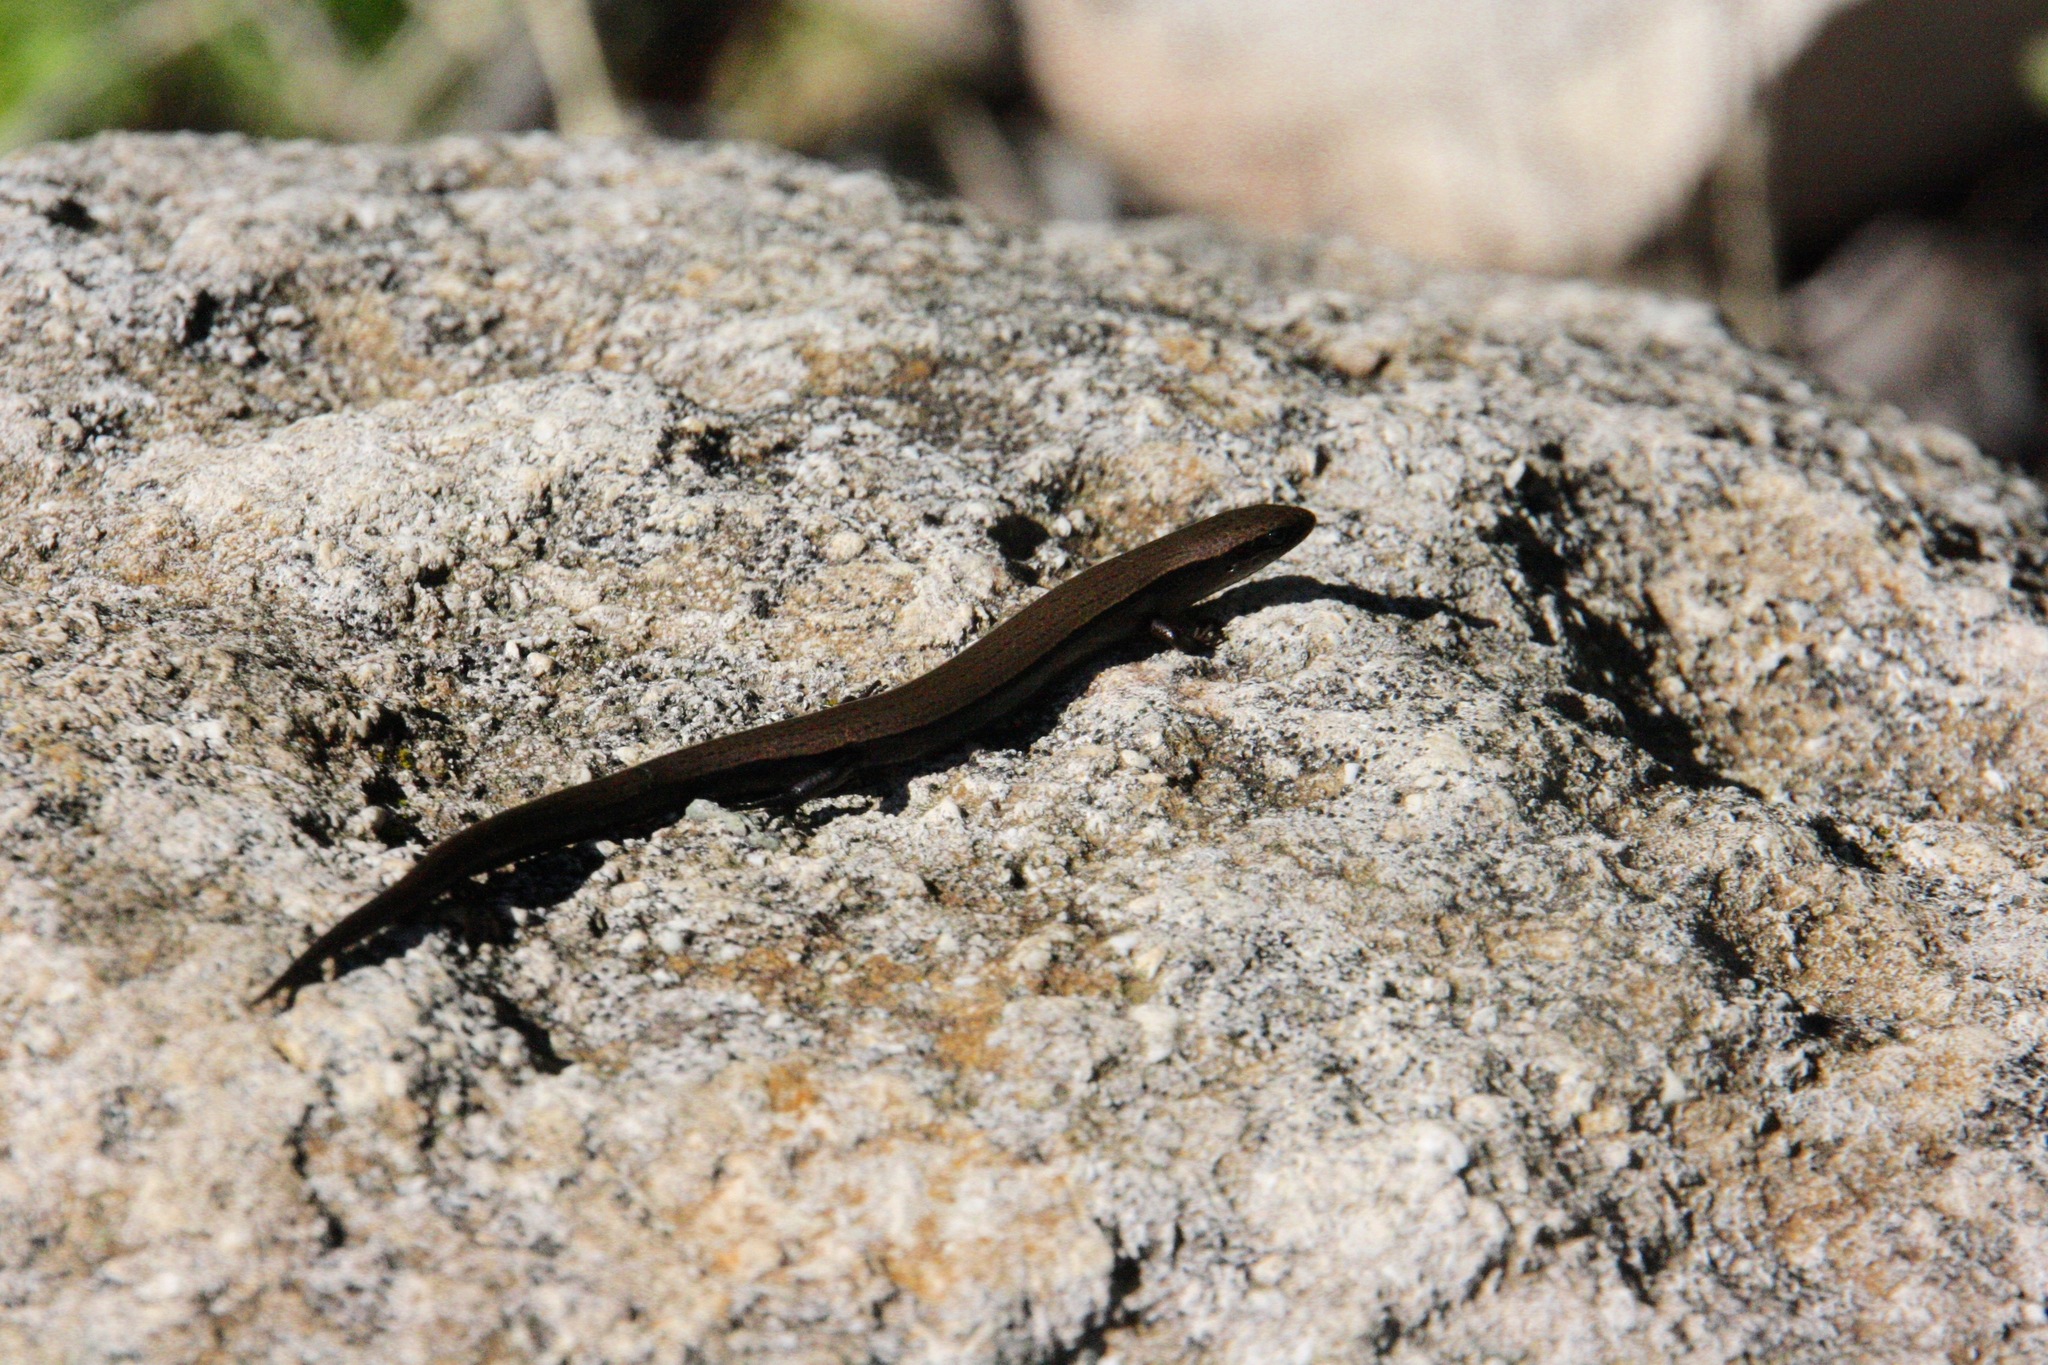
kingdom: Animalia
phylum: Chordata
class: Squamata
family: Scincidae
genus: Ablepharus
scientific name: Ablepharus budaki
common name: Budak’s snake-eyed skink
